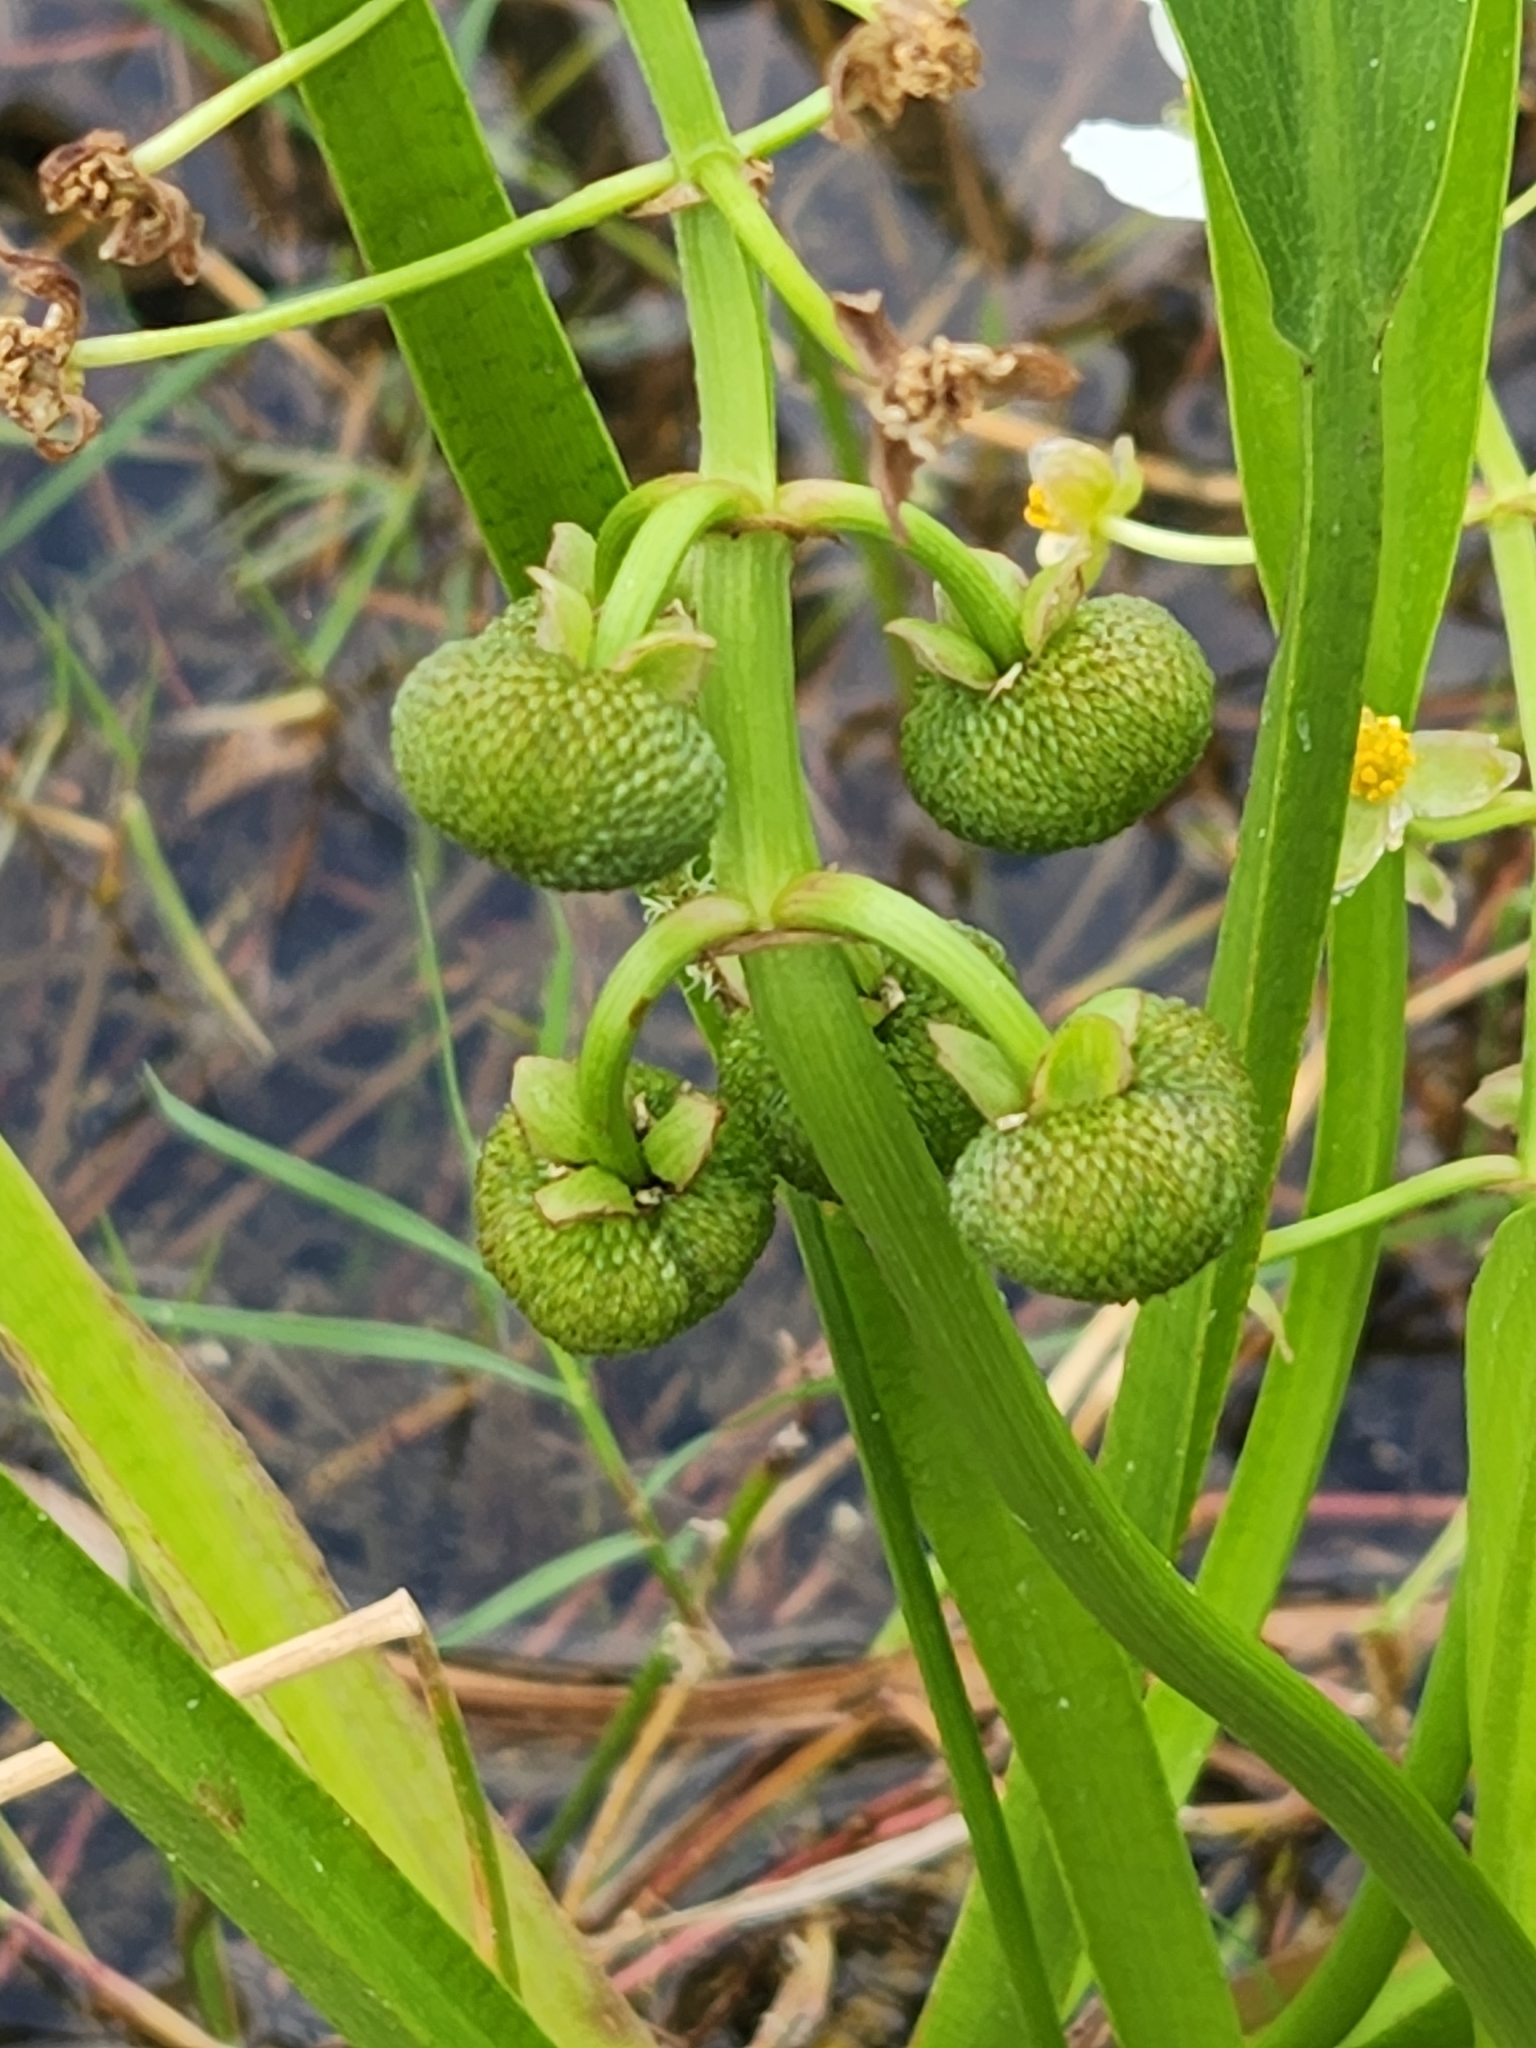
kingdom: Plantae
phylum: Tracheophyta
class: Liliopsida
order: Alismatales
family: Alismataceae
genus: Sagittaria
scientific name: Sagittaria platyphylla
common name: Broad-leaf arrowhead
